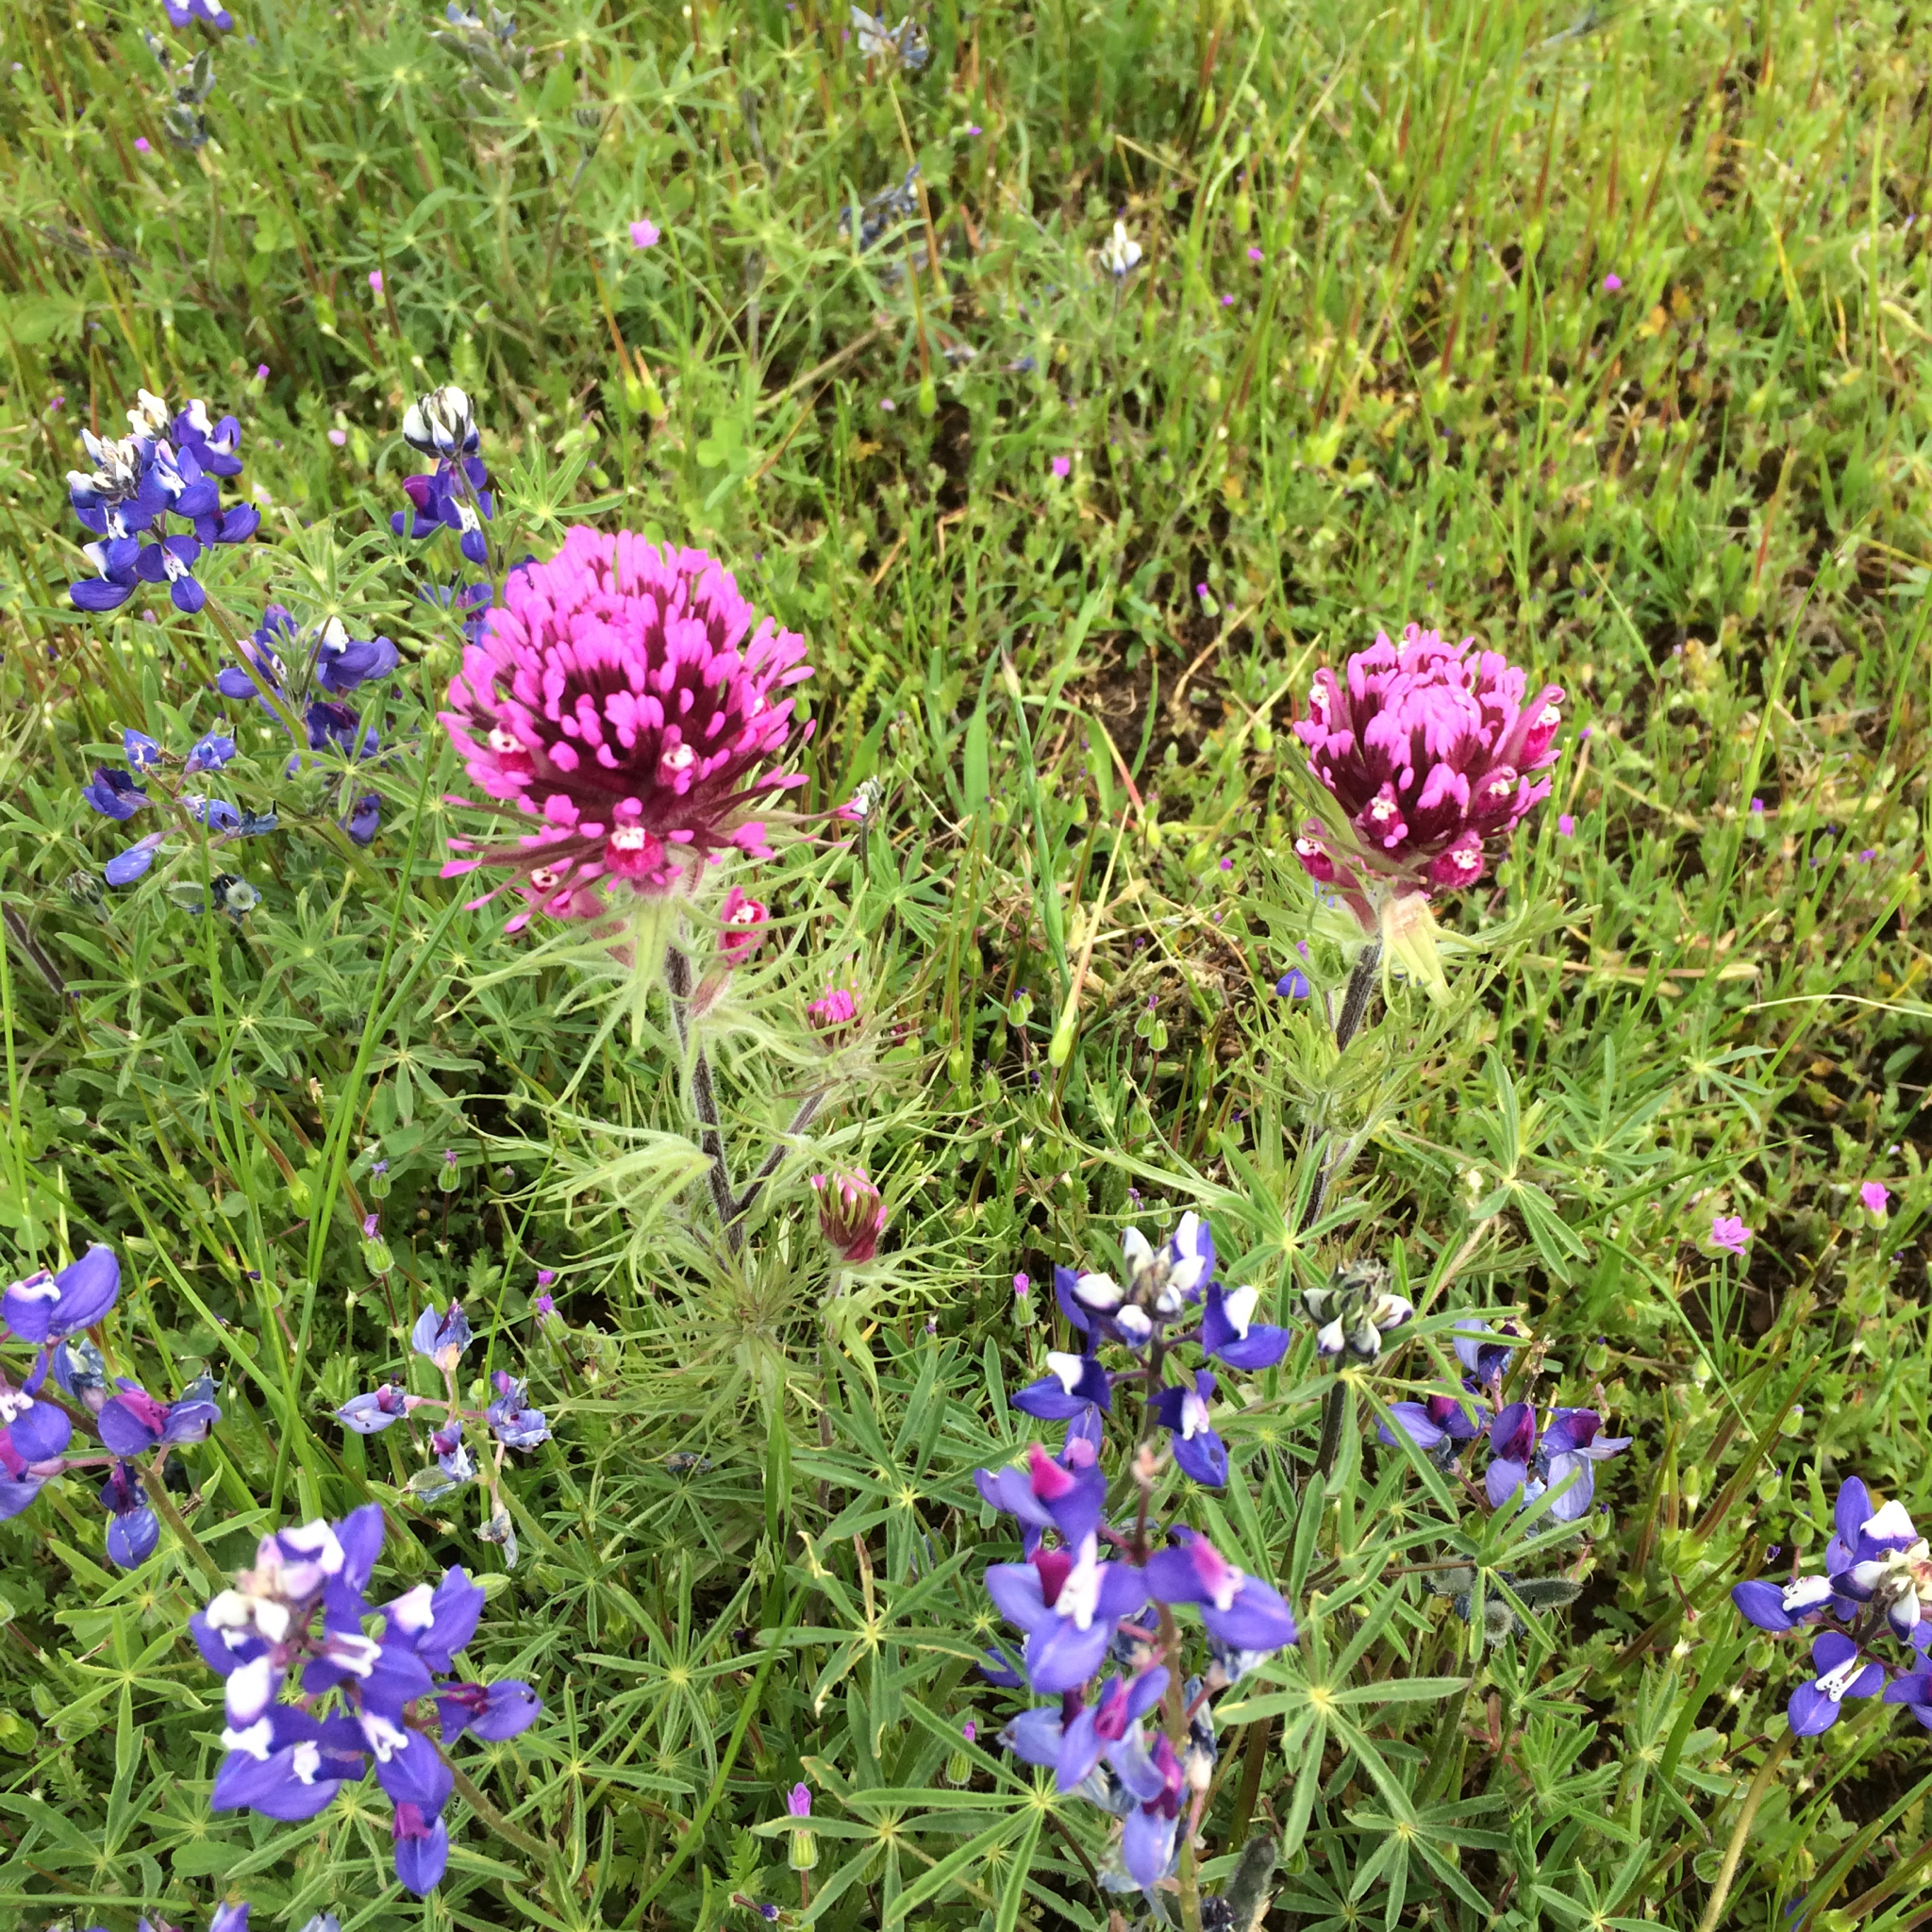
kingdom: Plantae
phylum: Tracheophyta
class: Magnoliopsida
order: Lamiales
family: Orobanchaceae
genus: Castilleja
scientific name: Castilleja exserta
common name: Purple owl-clover
